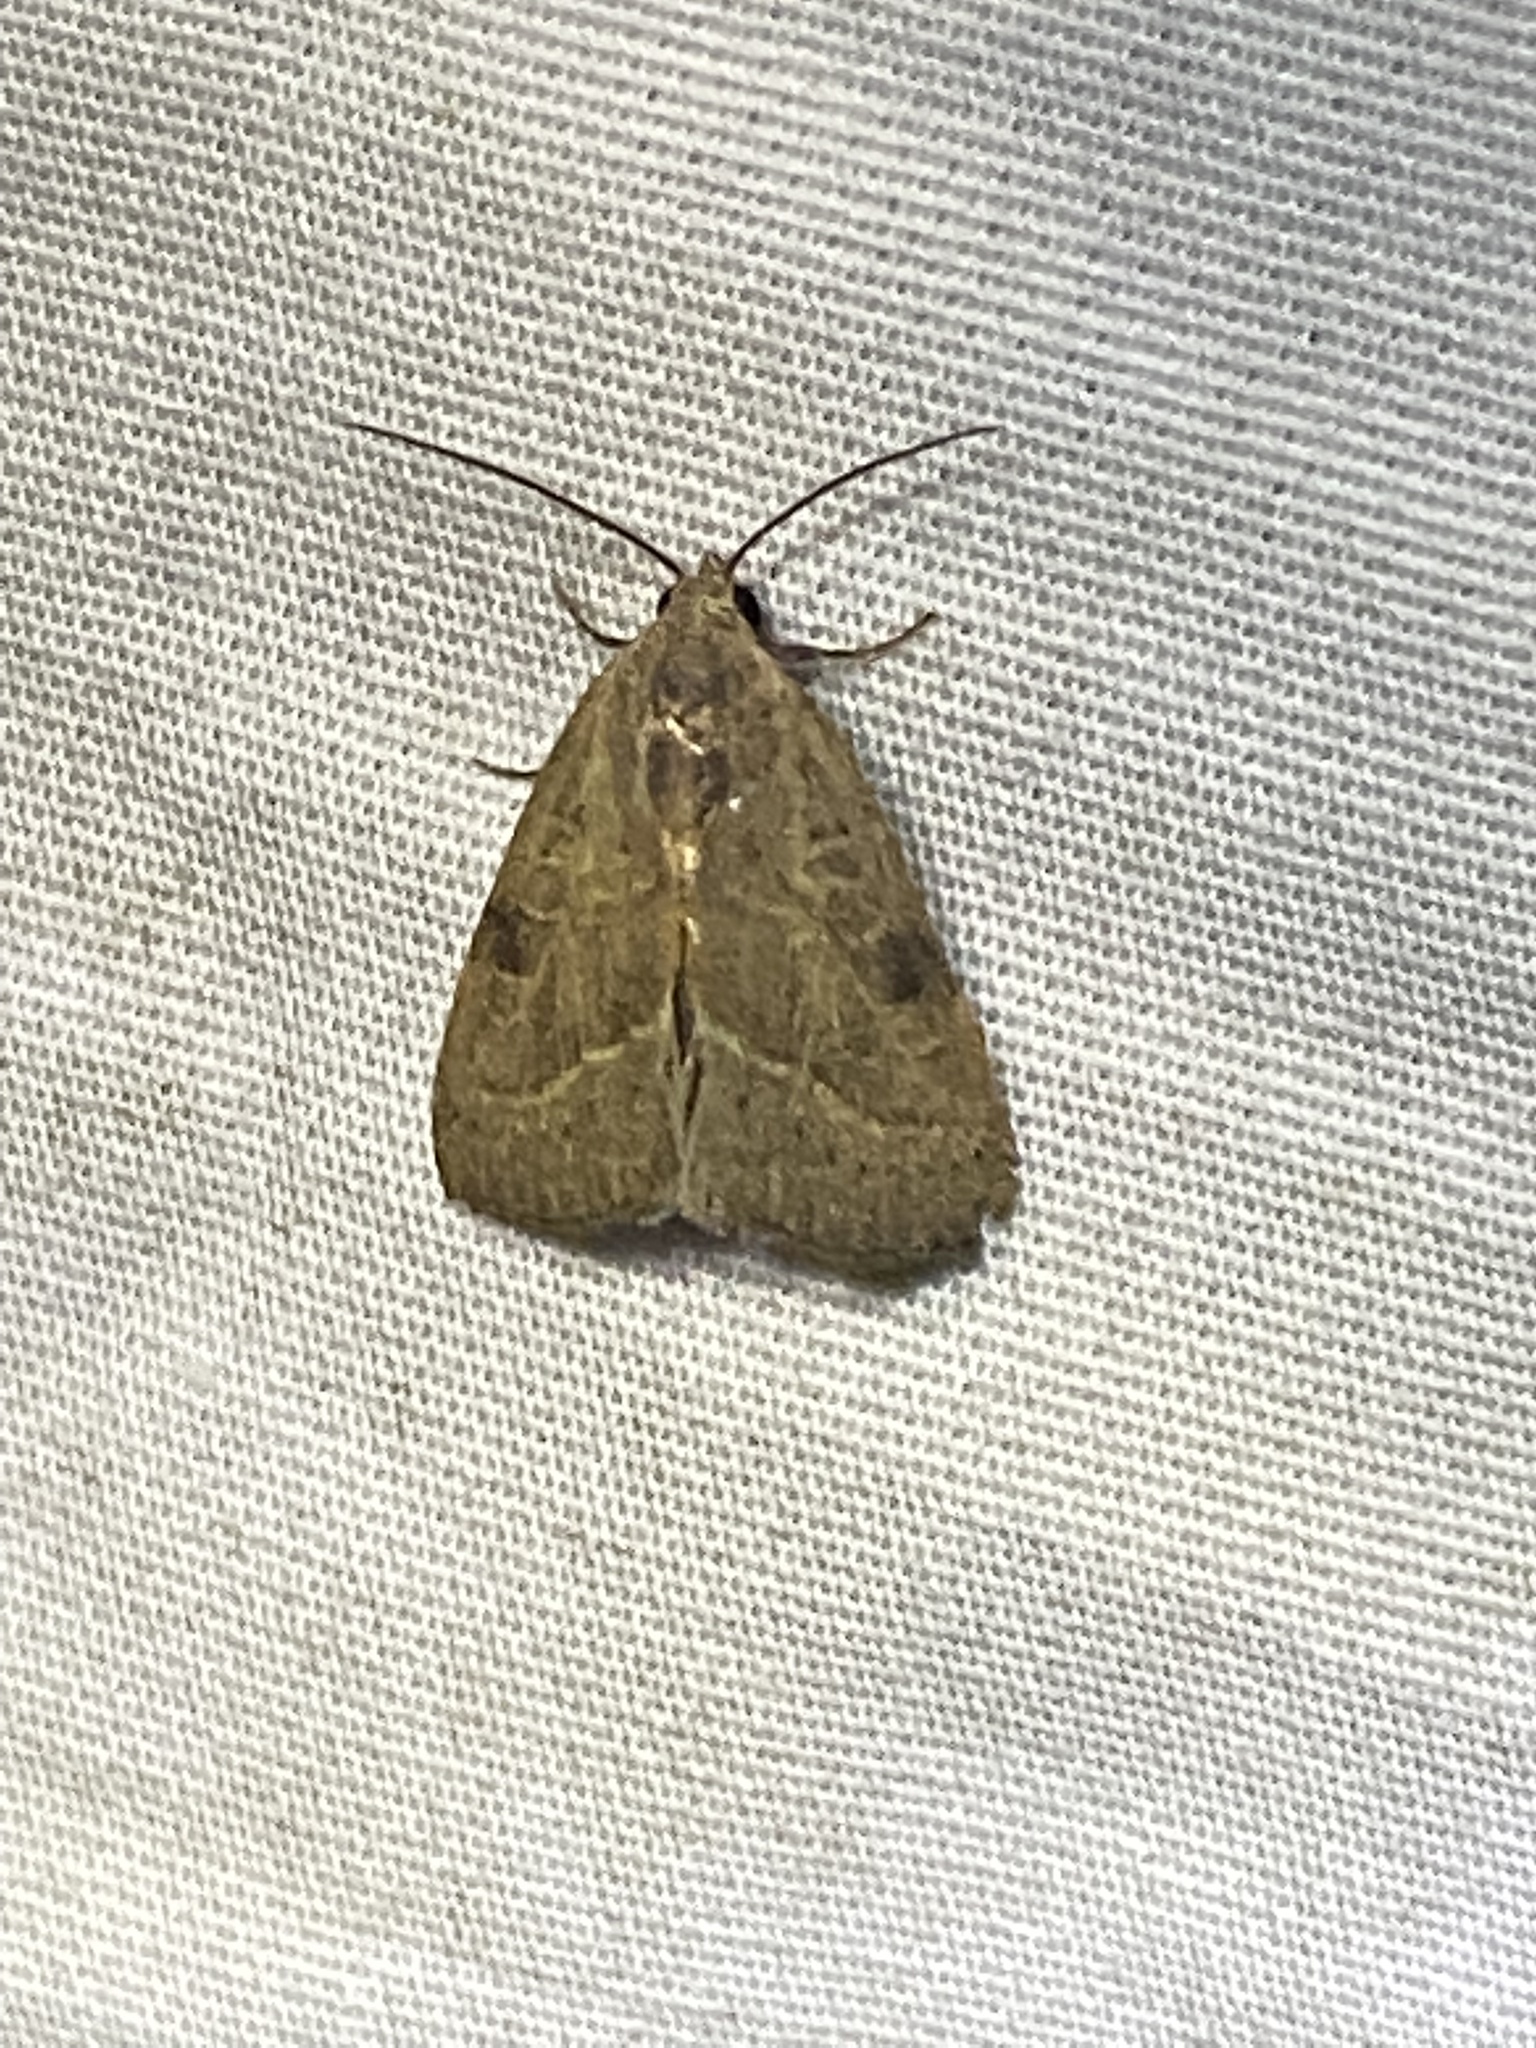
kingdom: Animalia
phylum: Arthropoda
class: Insecta
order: Lepidoptera
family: Noctuidae
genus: Galgula
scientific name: Galgula partita
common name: Wedgeling
